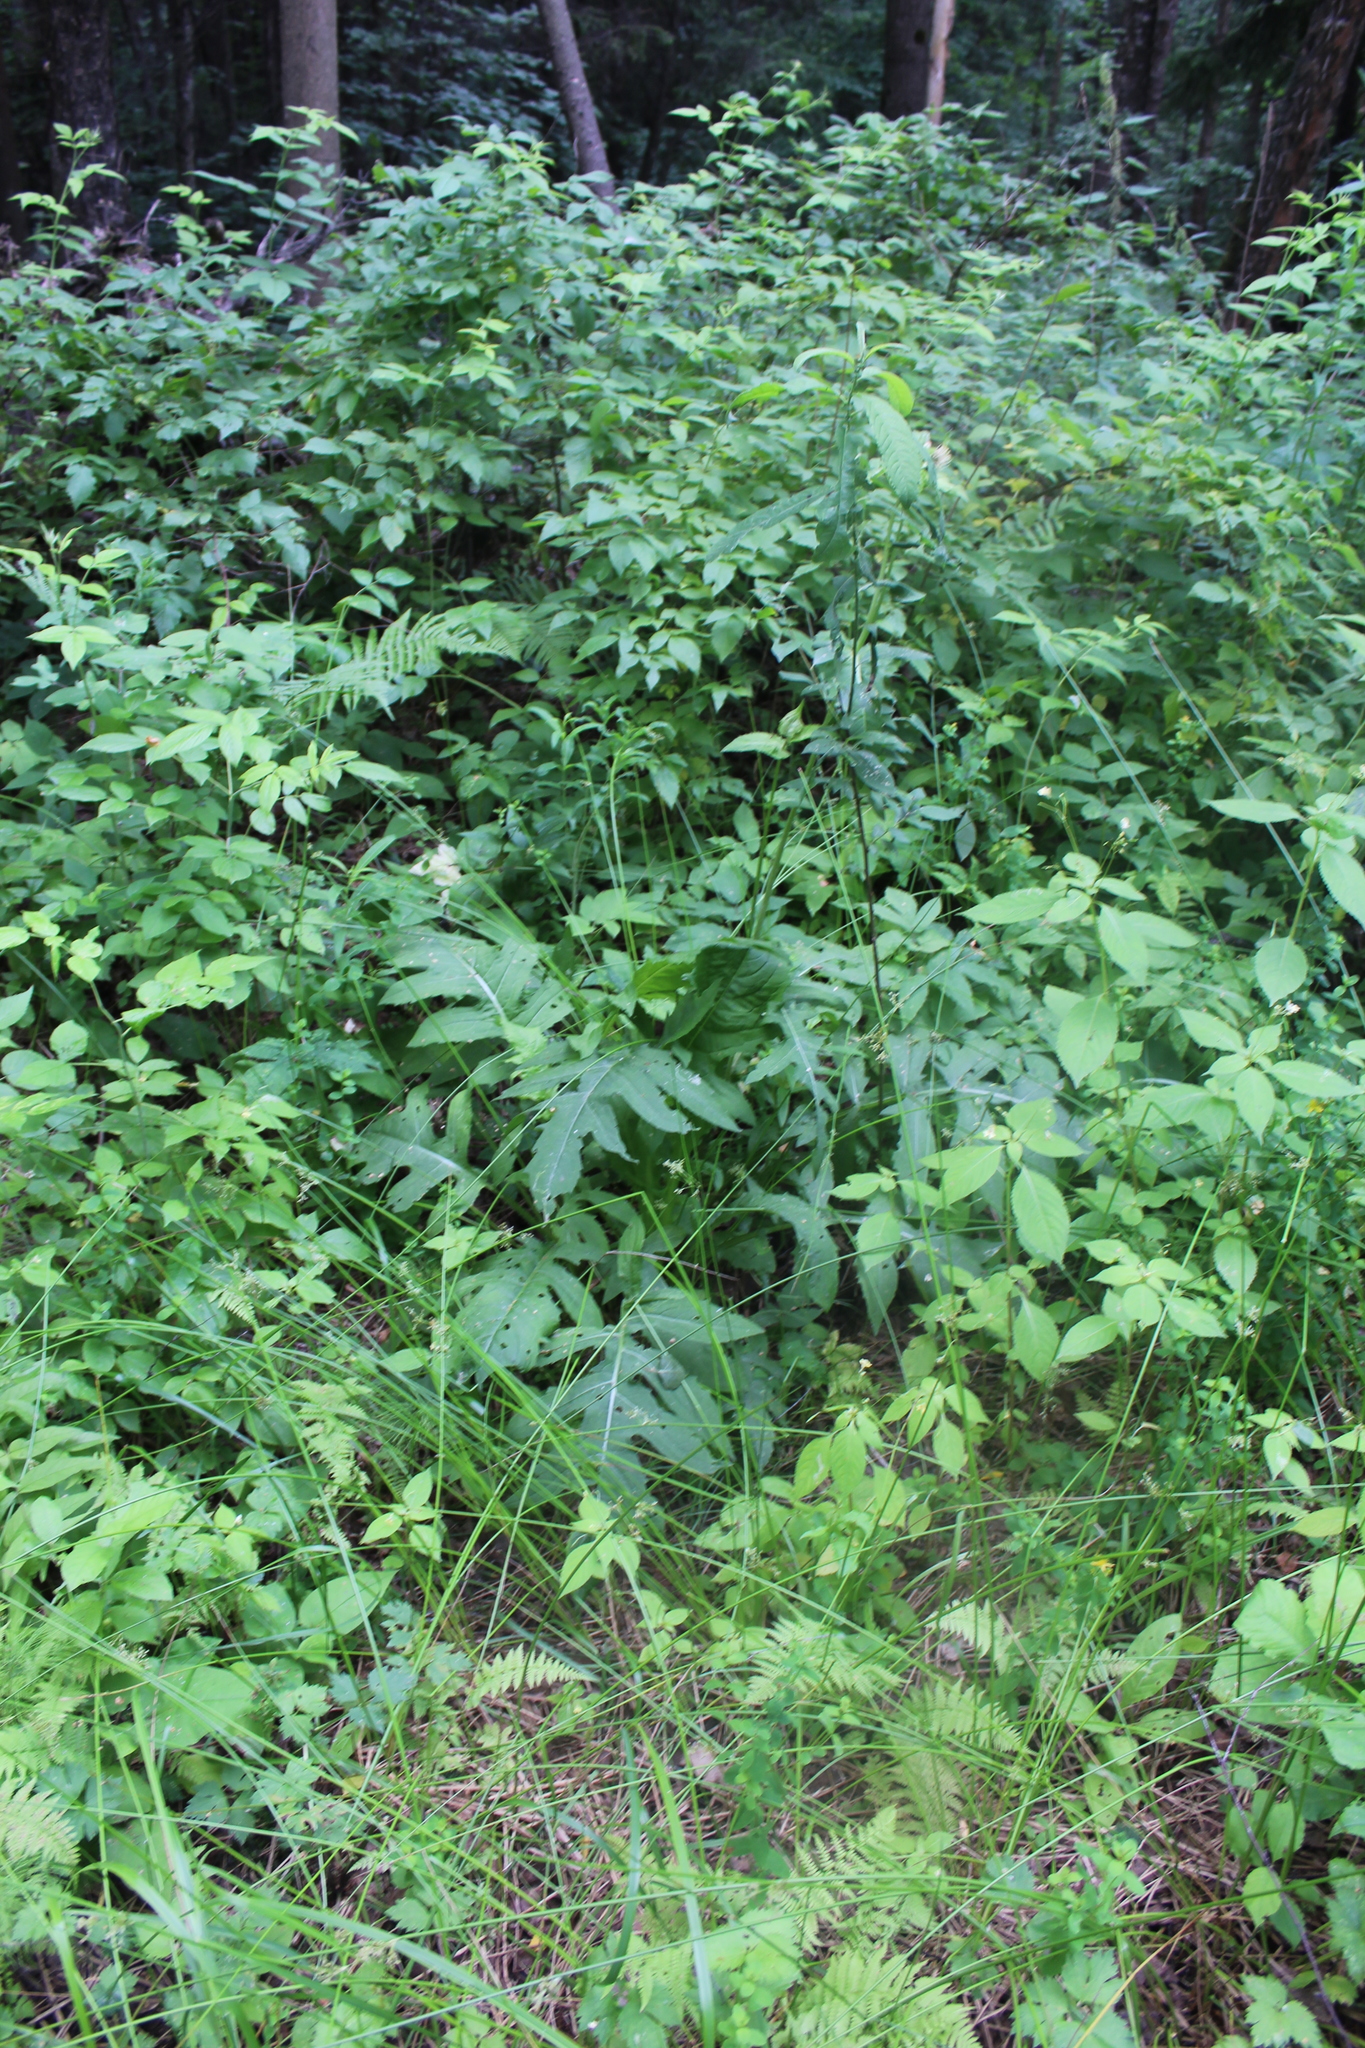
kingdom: Plantae
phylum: Tracheophyta
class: Magnoliopsida
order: Asterales
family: Asteraceae
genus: Cirsium
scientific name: Cirsium oleraceum
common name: Cabbage thistle
